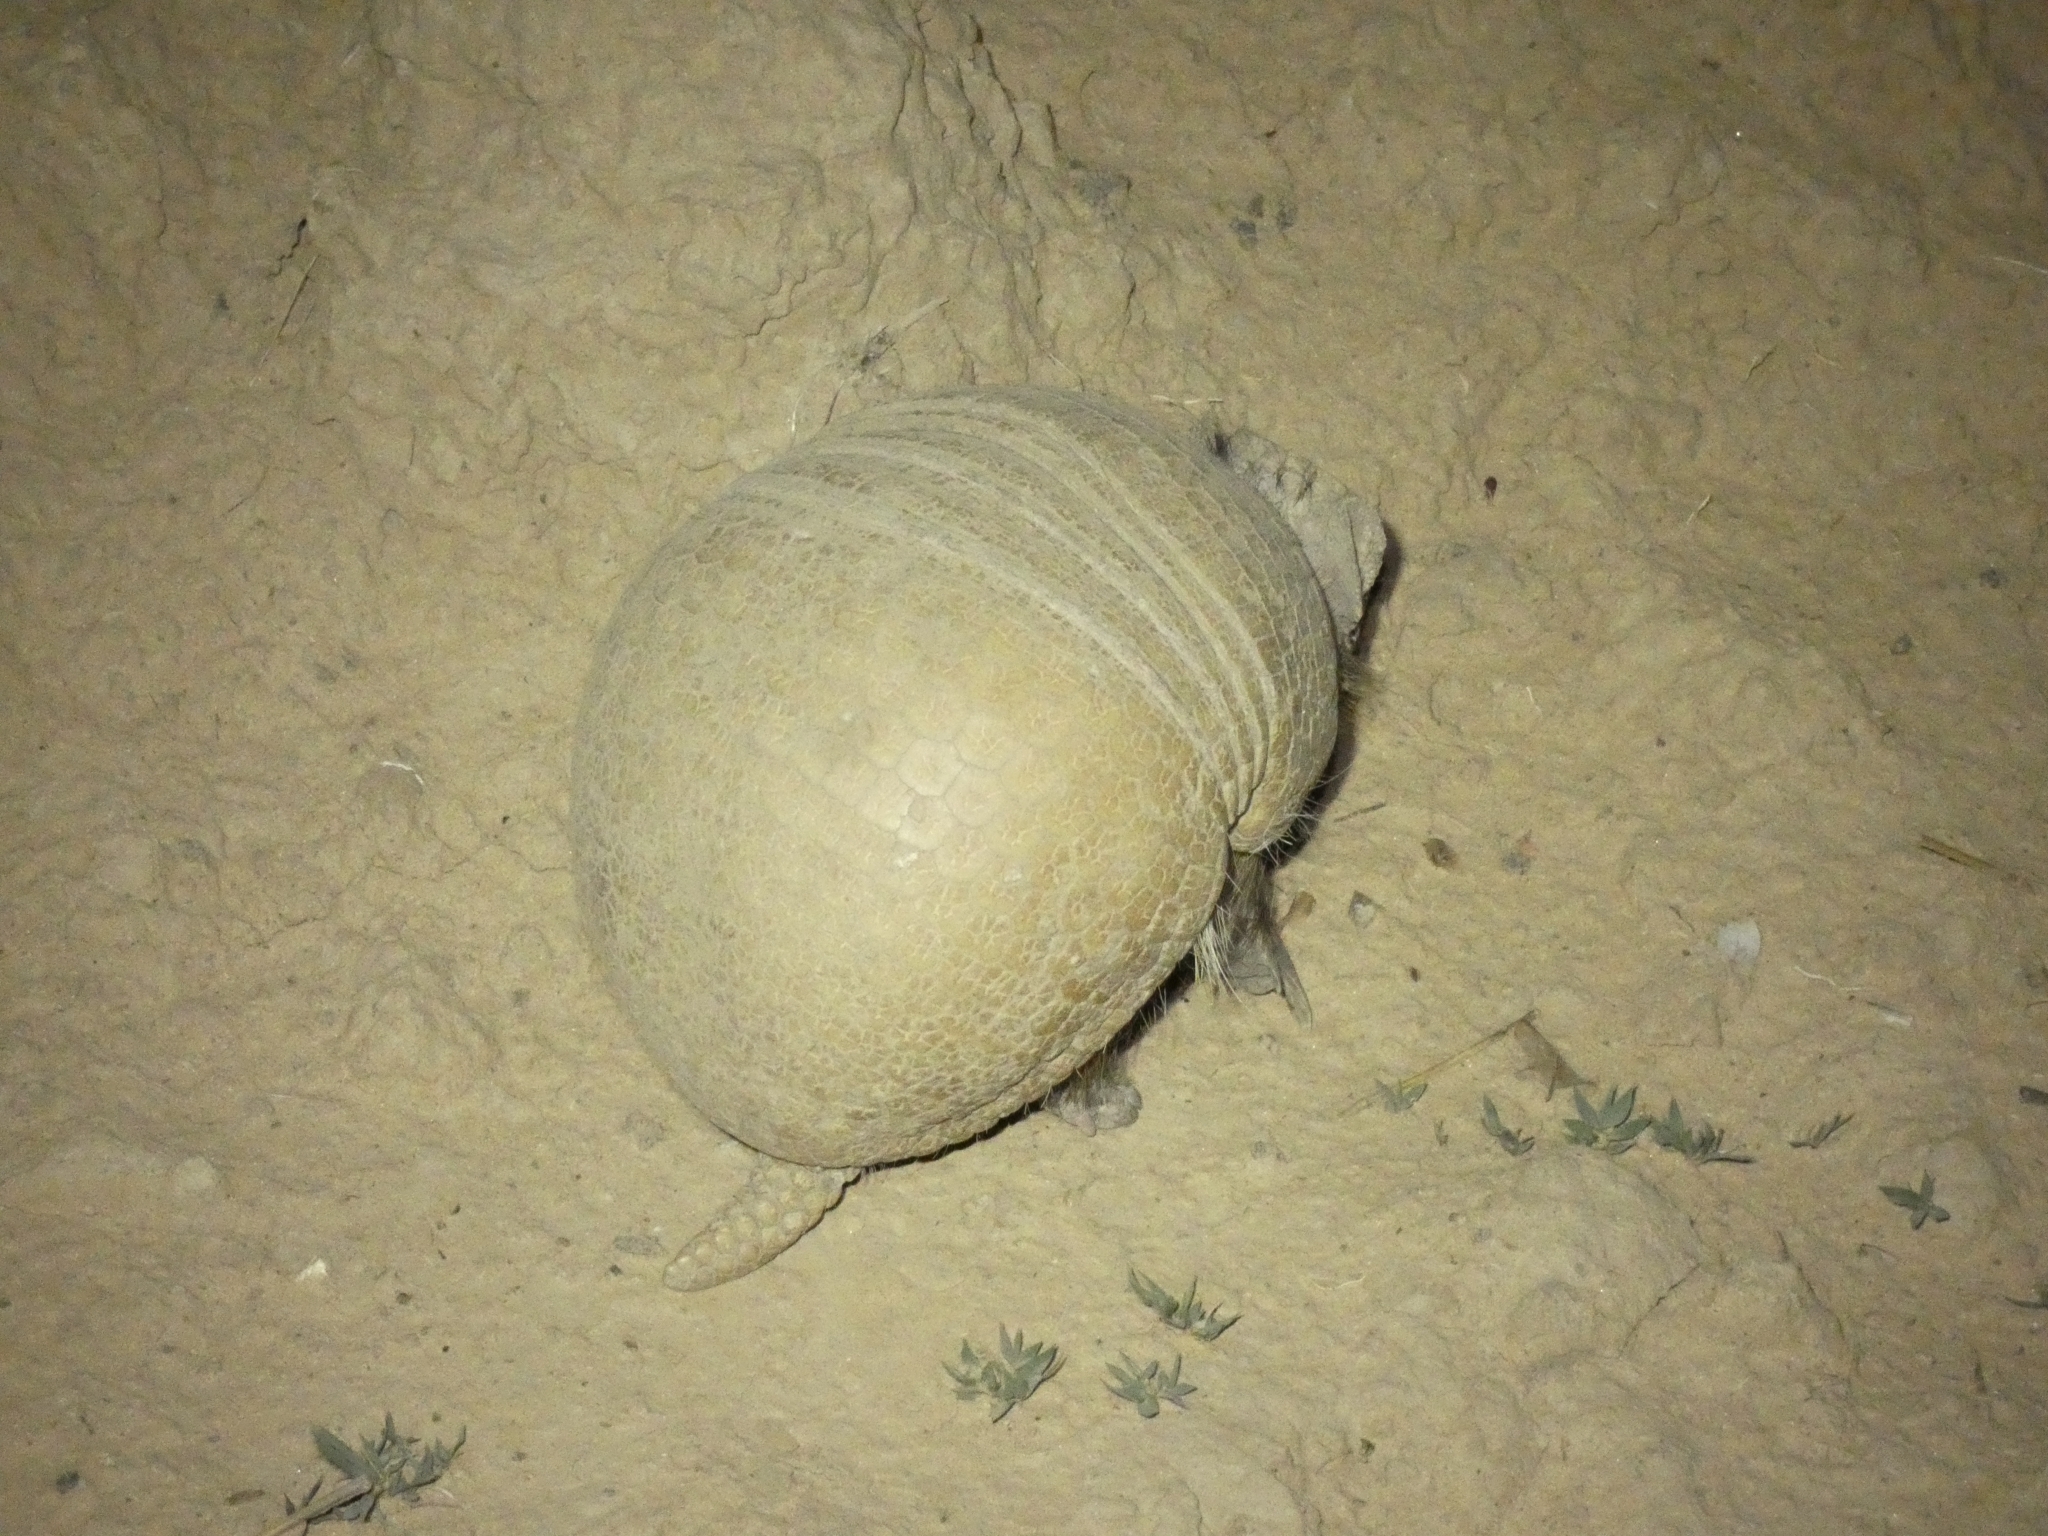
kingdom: Animalia
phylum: Chordata
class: Mammalia
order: Cingulata
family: Dasypodidae
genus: Tolypeutes
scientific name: Tolypeutes matacus
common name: Southern three-banded armadillo
